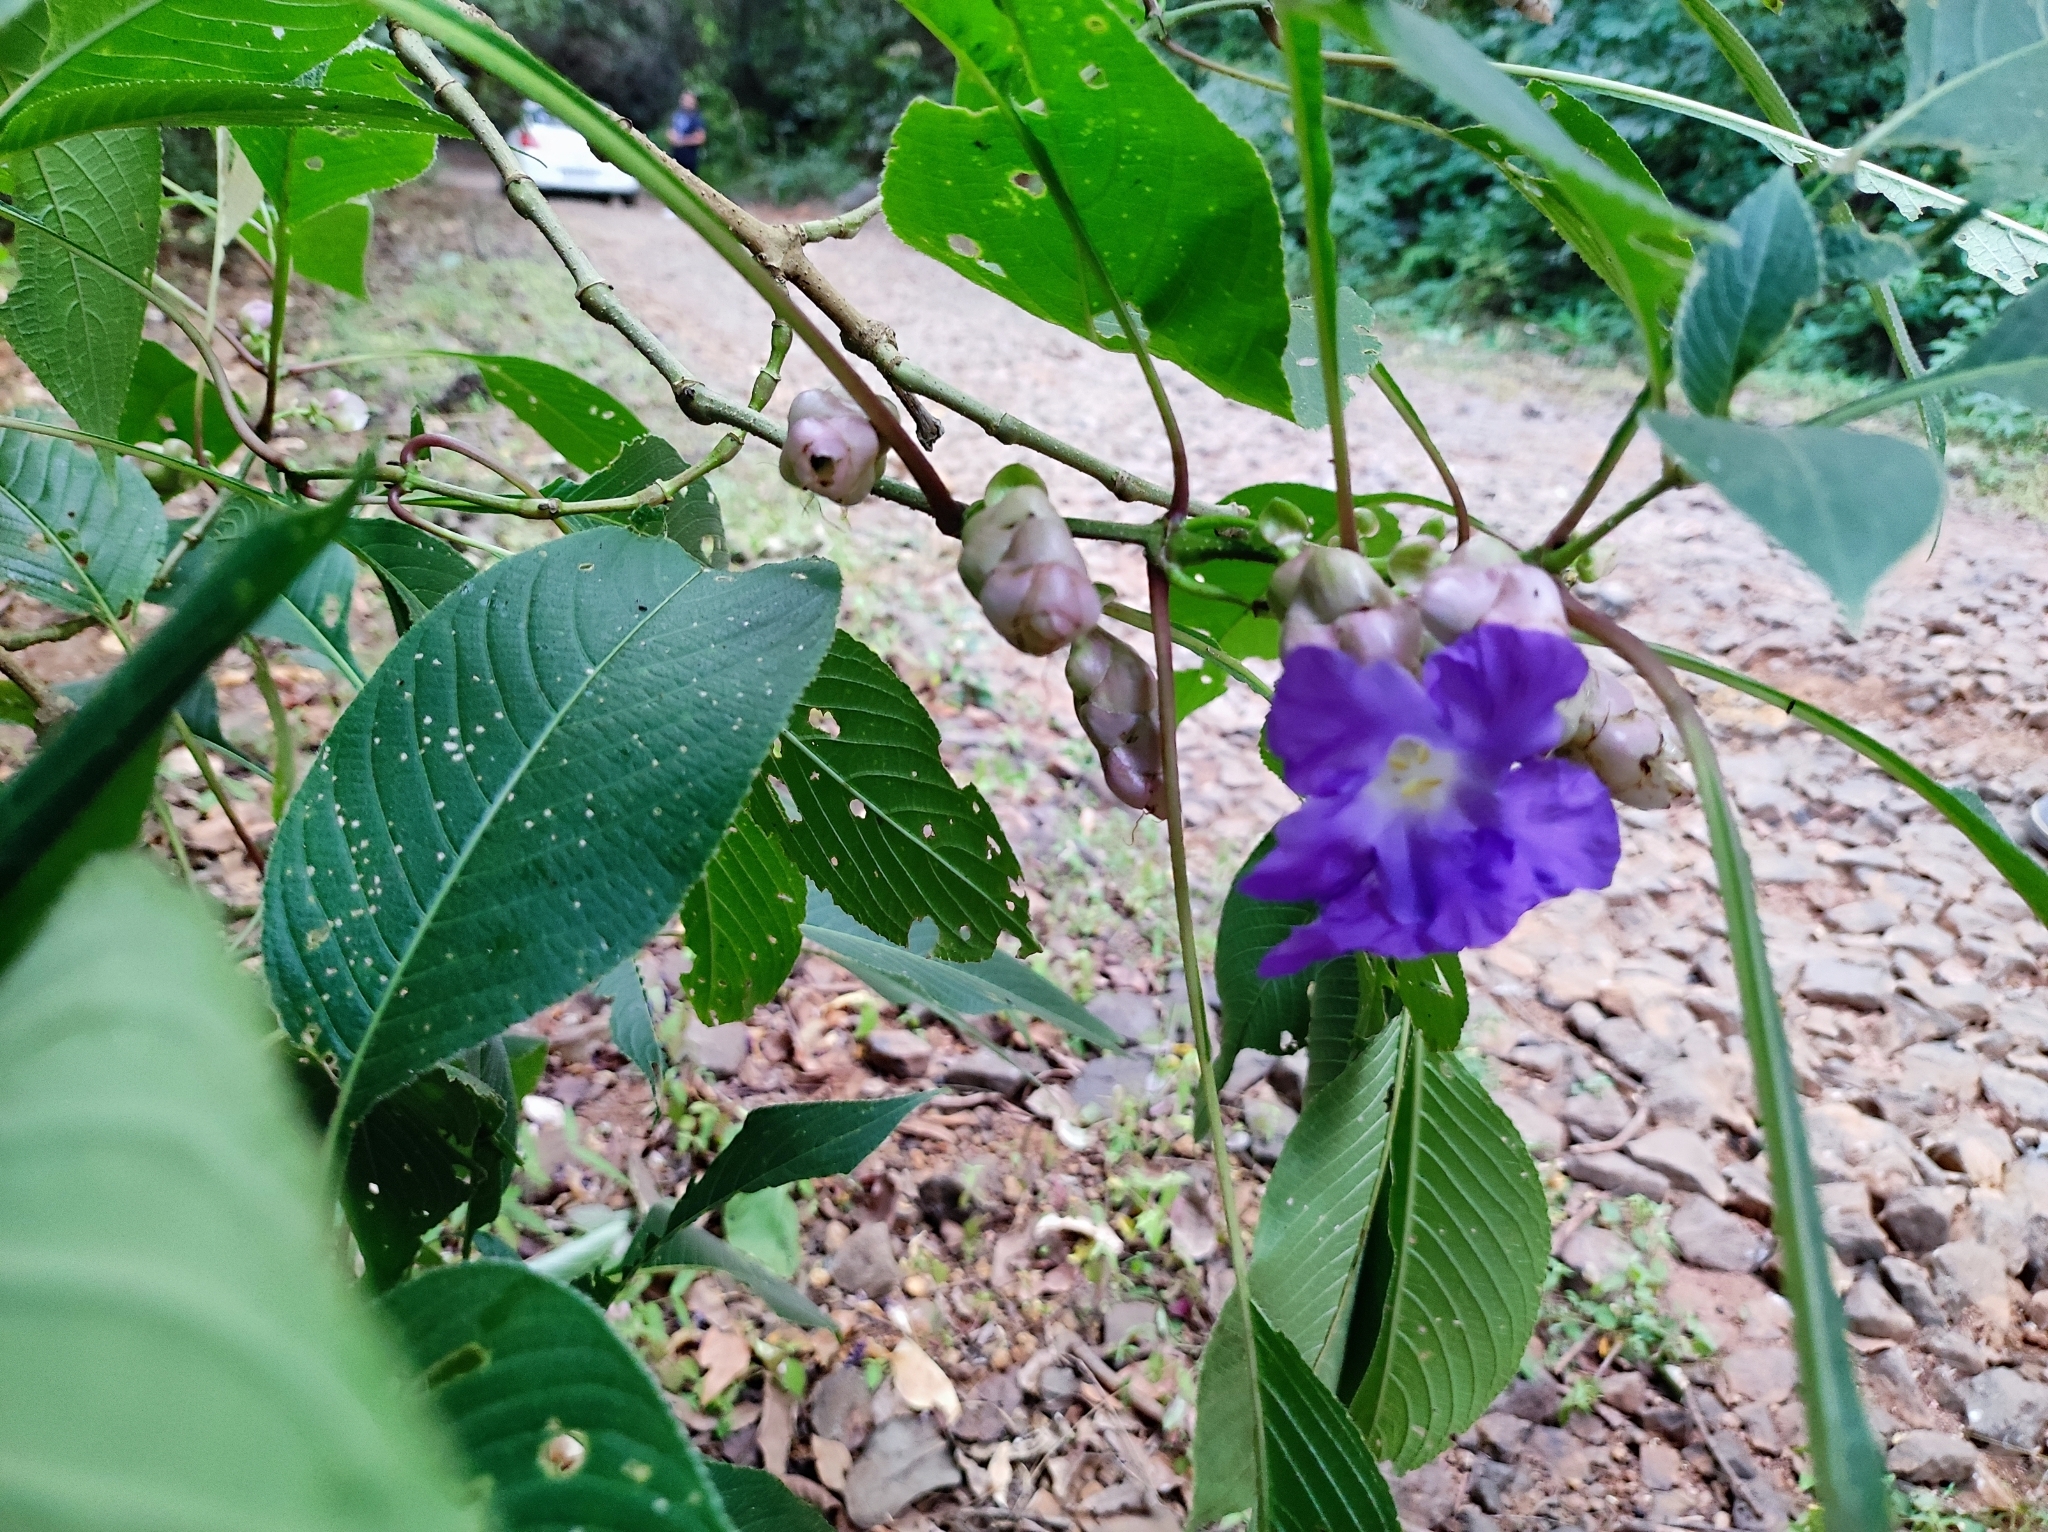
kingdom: Plantae
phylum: Tracheophyta
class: Magnoliopsida
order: Lamiales
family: Acanthaceae
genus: Strobilanthes
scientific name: Strobilanthes callosa
